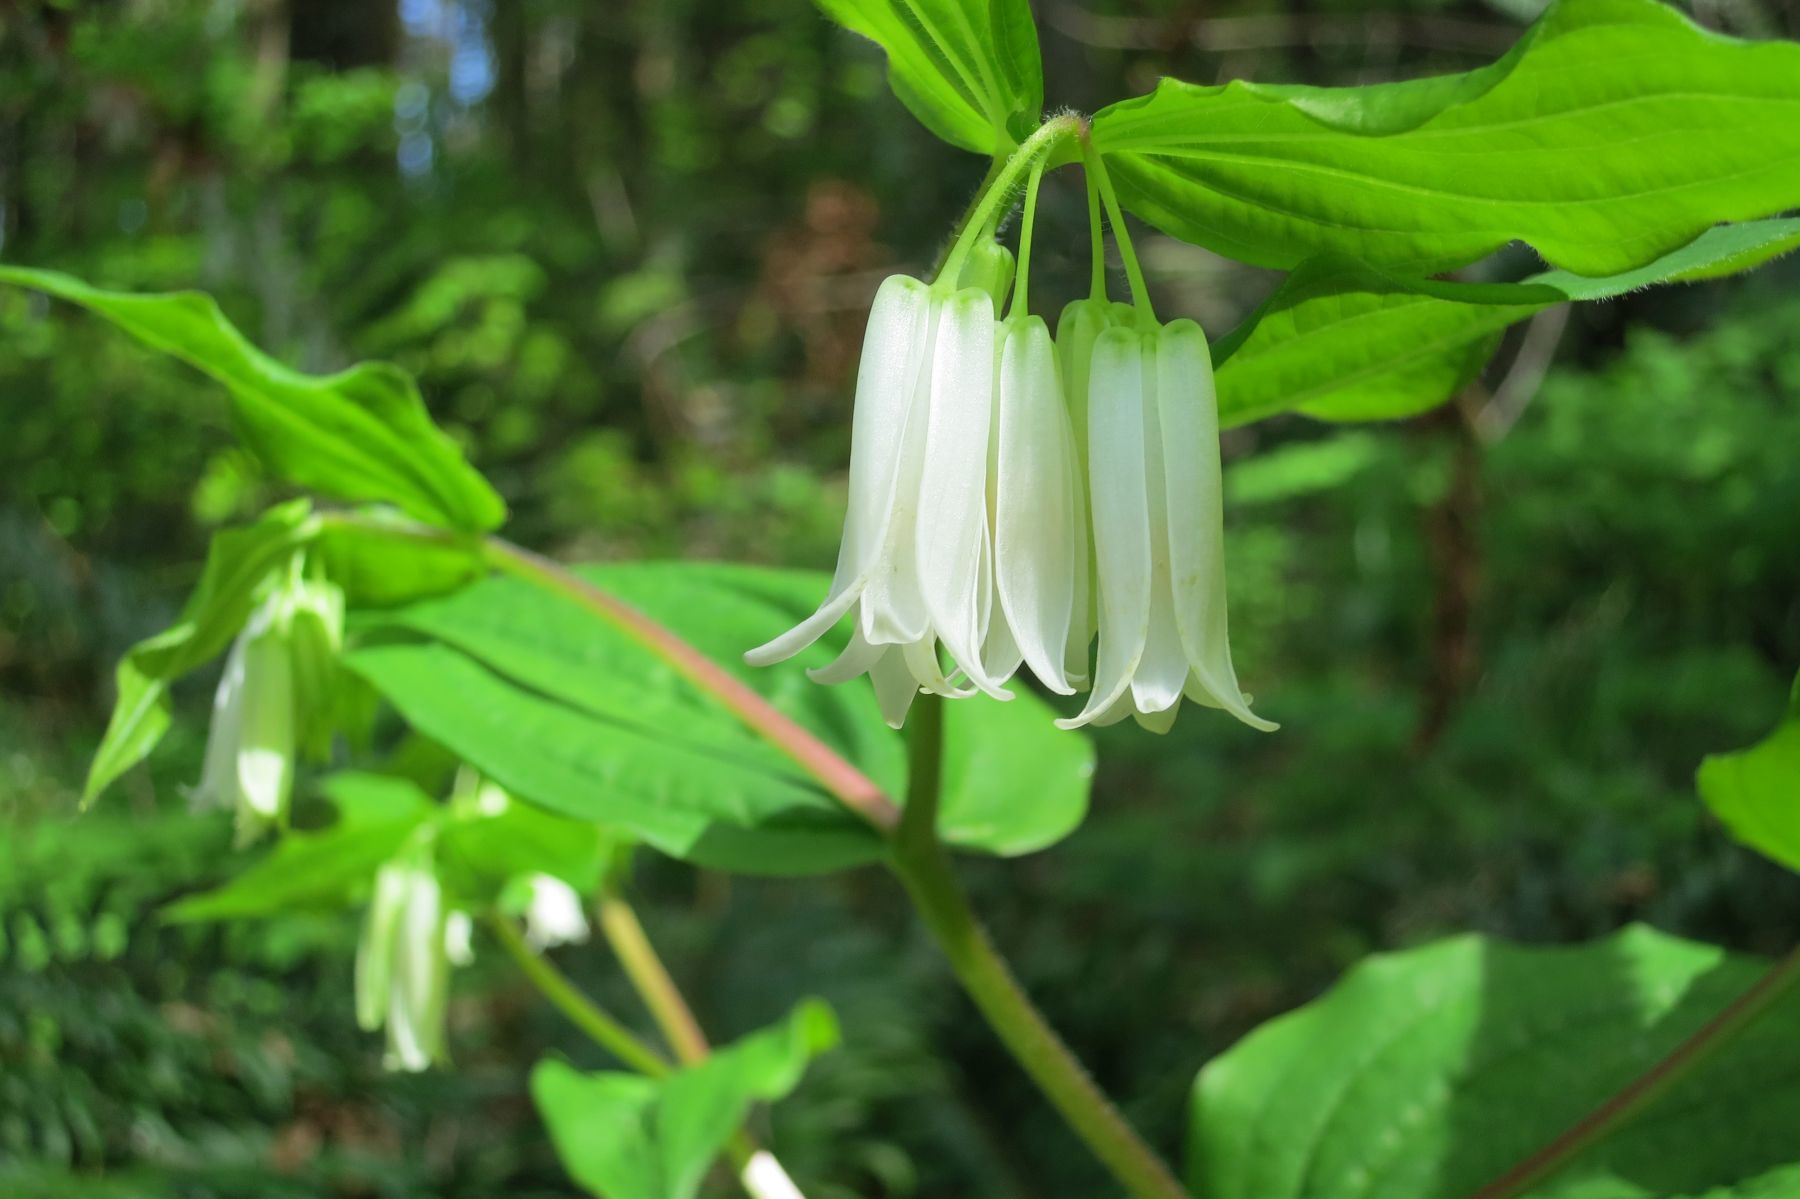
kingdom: Plantae
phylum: Tracheophyta
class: Liliopsida
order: Liliales
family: Liliaceae
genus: Prosartes
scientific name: Prosartes smithii
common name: Fairy-lantern
